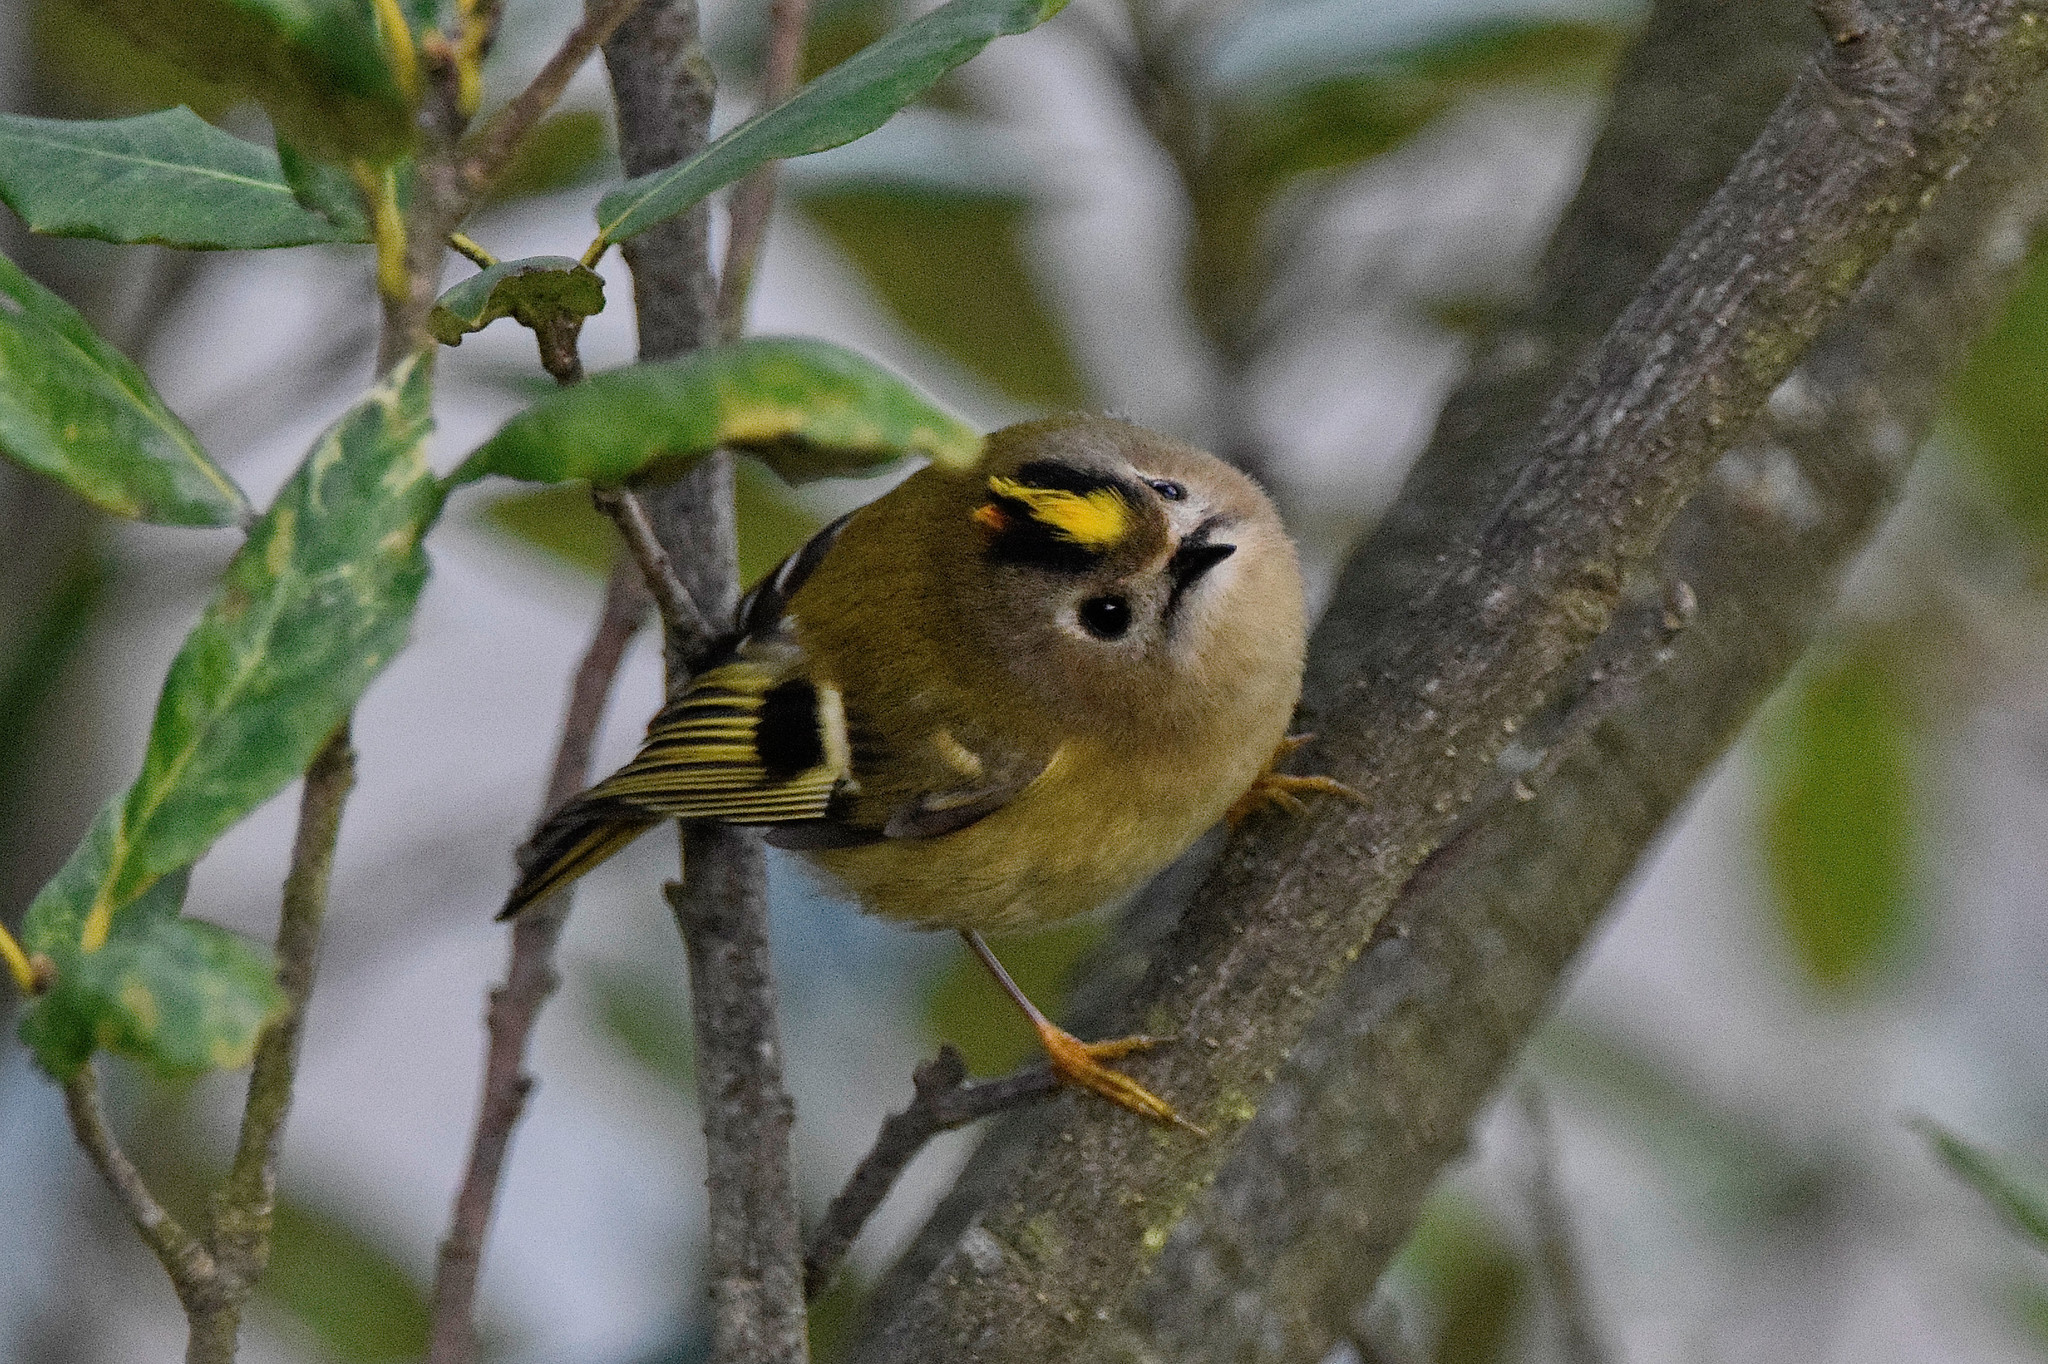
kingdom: Animalia
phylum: Chordata
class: Aves
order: Passeriformes
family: Regulidae
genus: Regulus
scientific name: Regulus regulus
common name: Goldcrest
